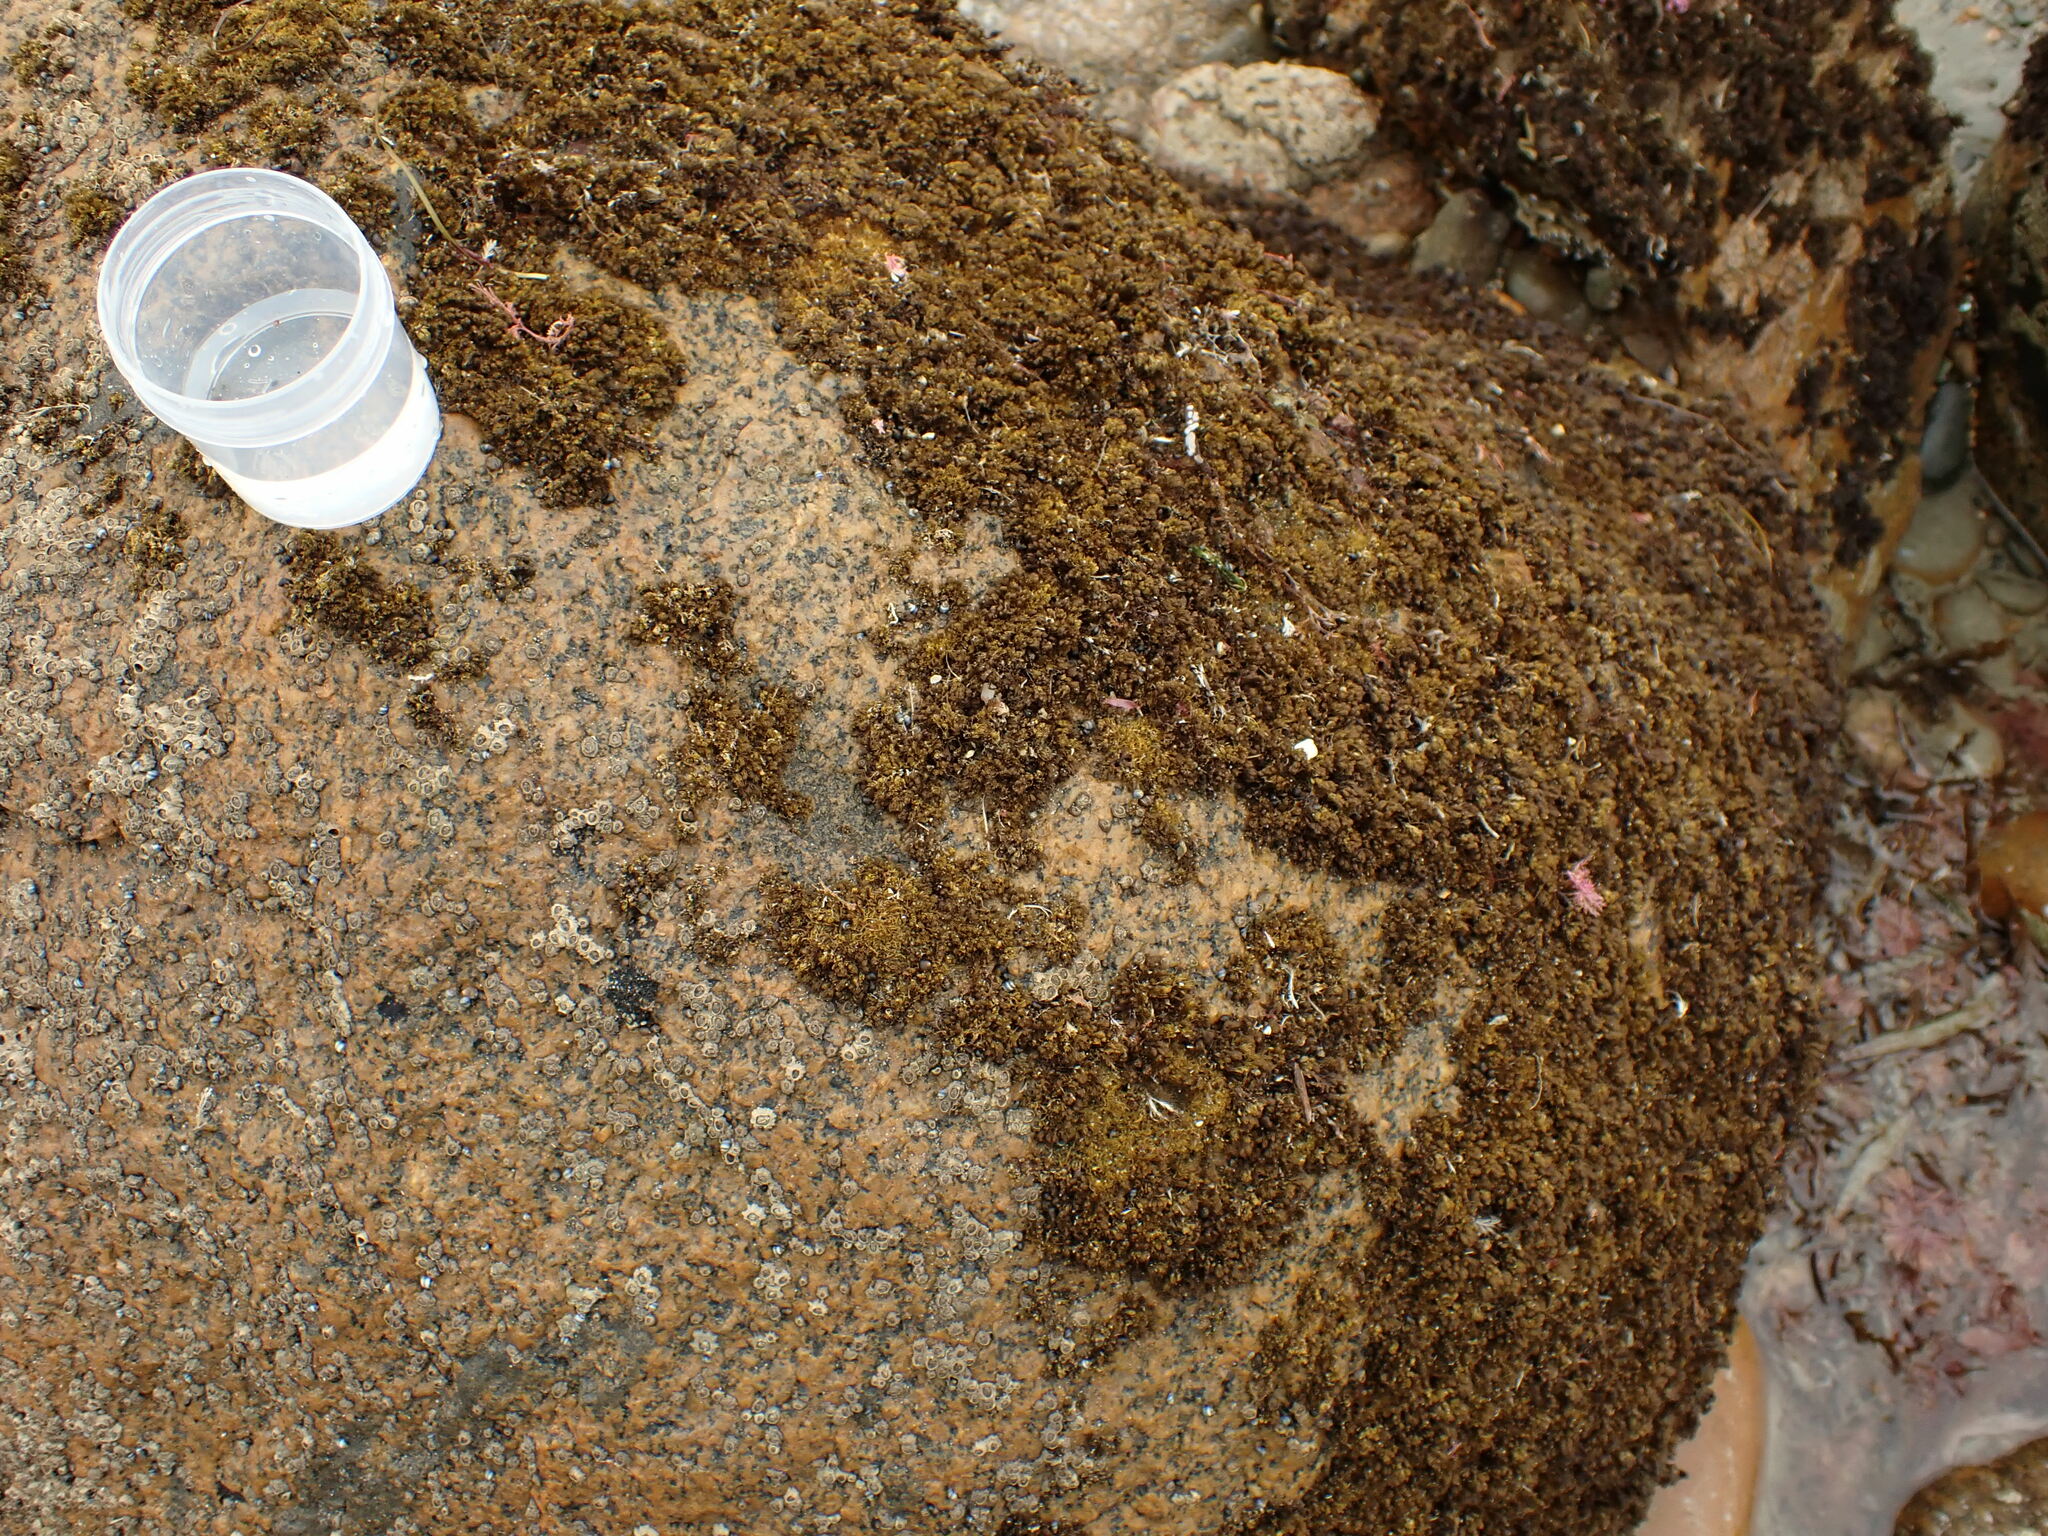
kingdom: Plantae
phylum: Rhodophyta
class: Florideophyceae
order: Ceramiales
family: Rhodomelaceae
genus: Bostrychia
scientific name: Bostrychia arbuscula
